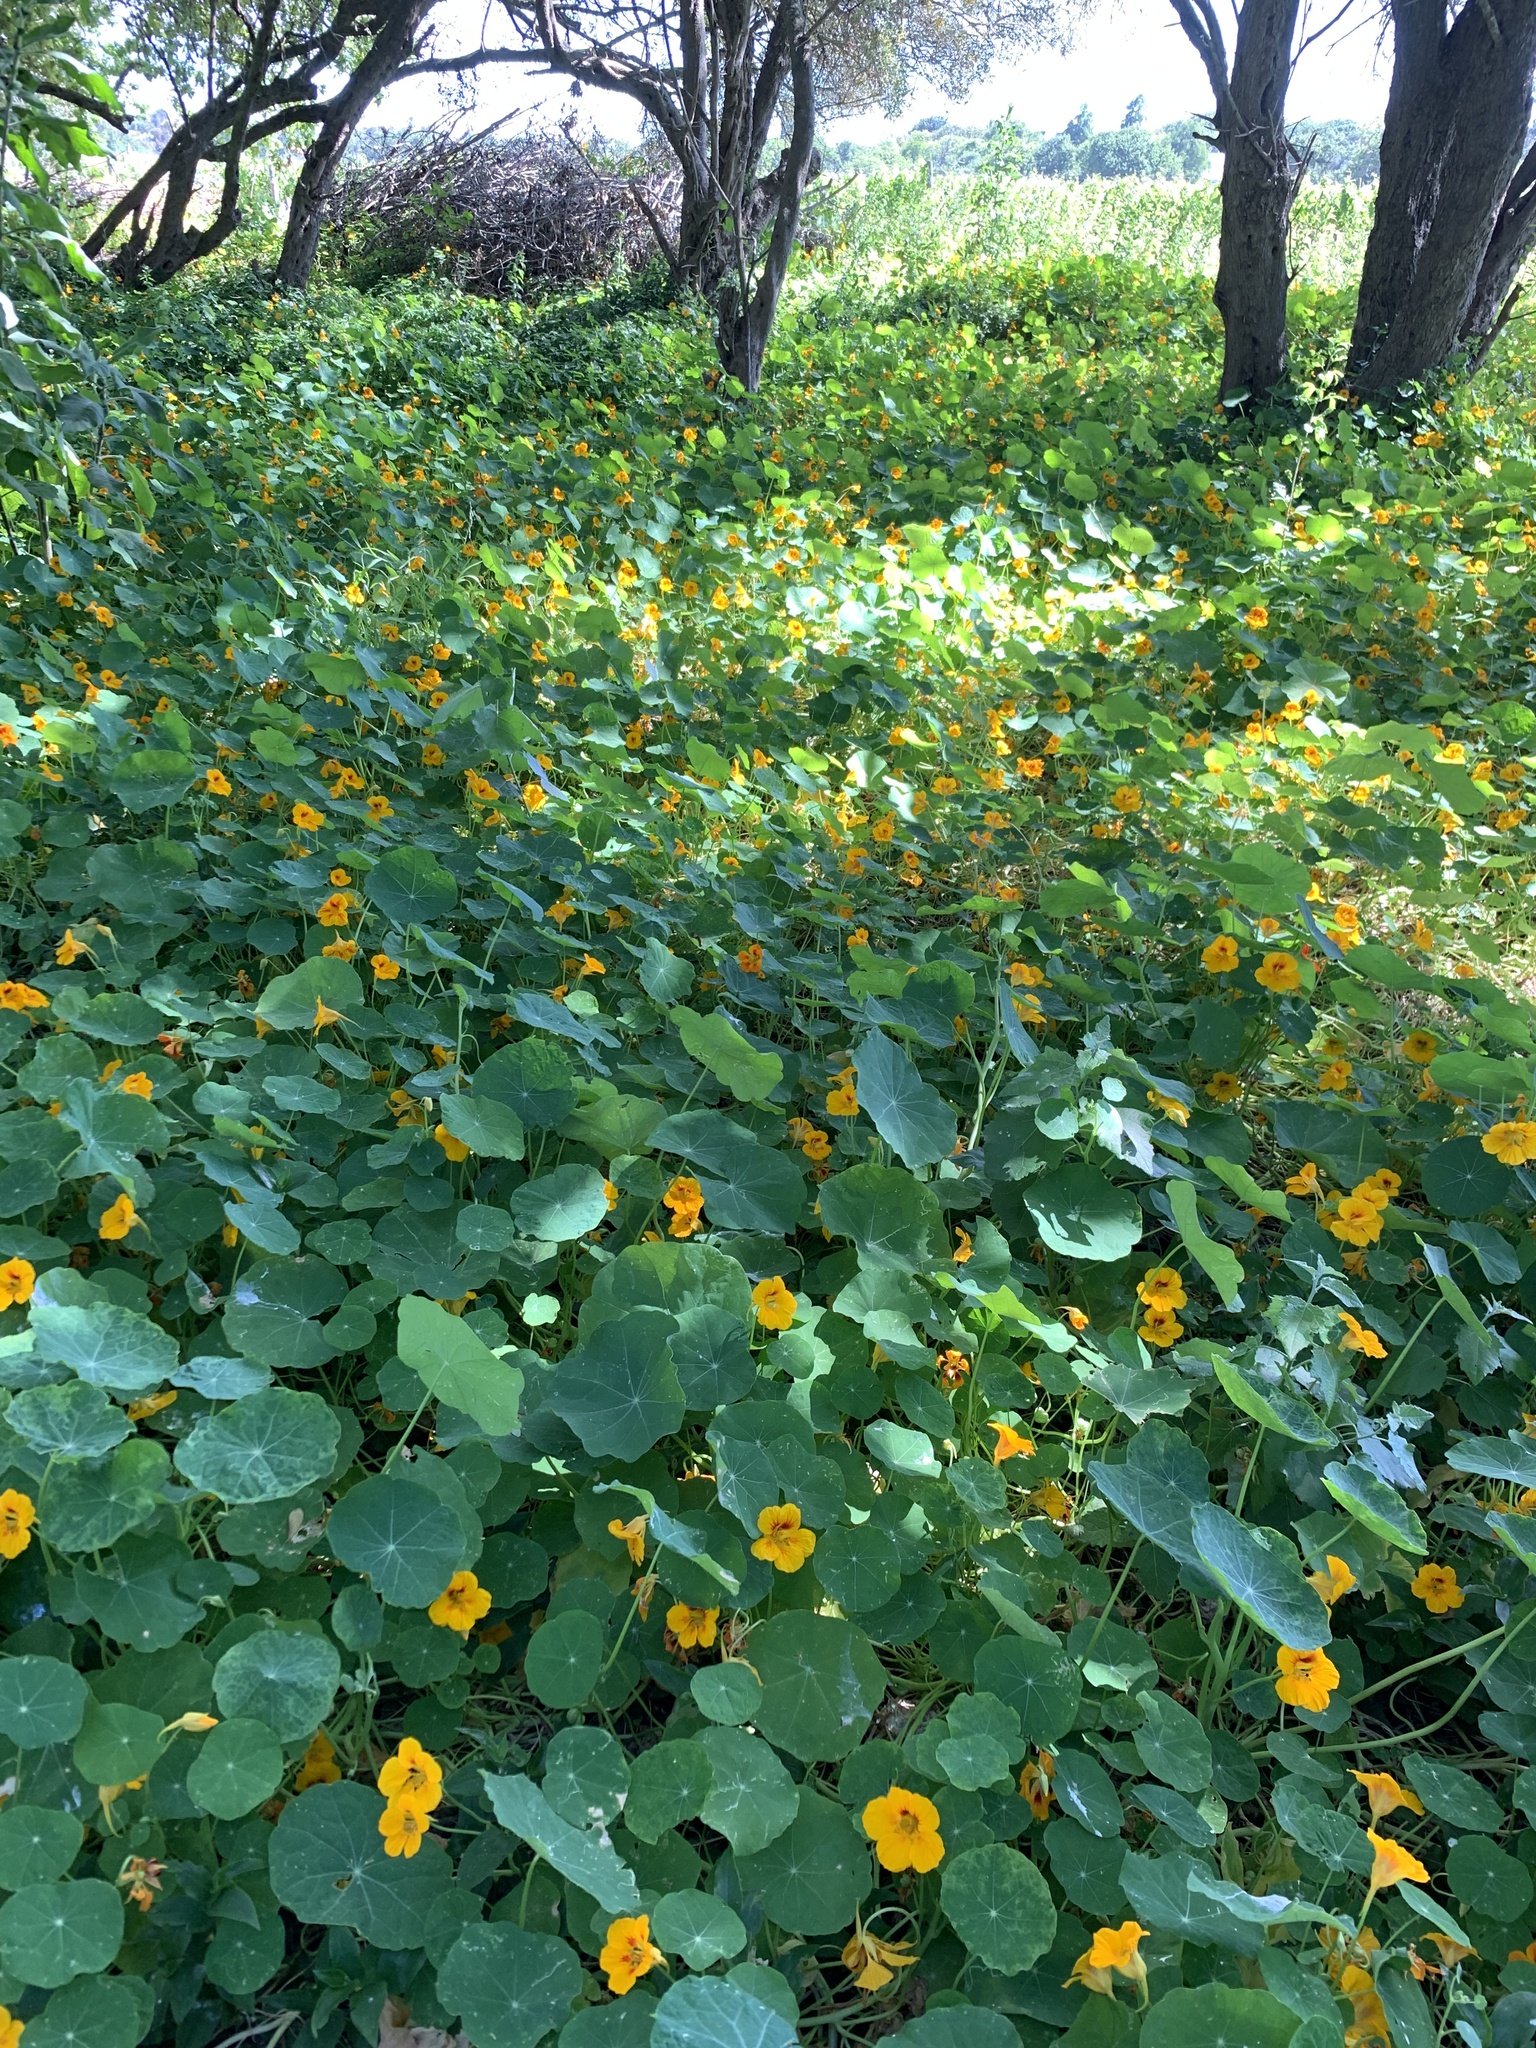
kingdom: Plantae
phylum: Tracheophyta
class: Magnoliopsida
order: Brassicales
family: Tropaeolaceae
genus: Tropaeolum
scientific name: Tropaeolum majus
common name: Nasturtium
